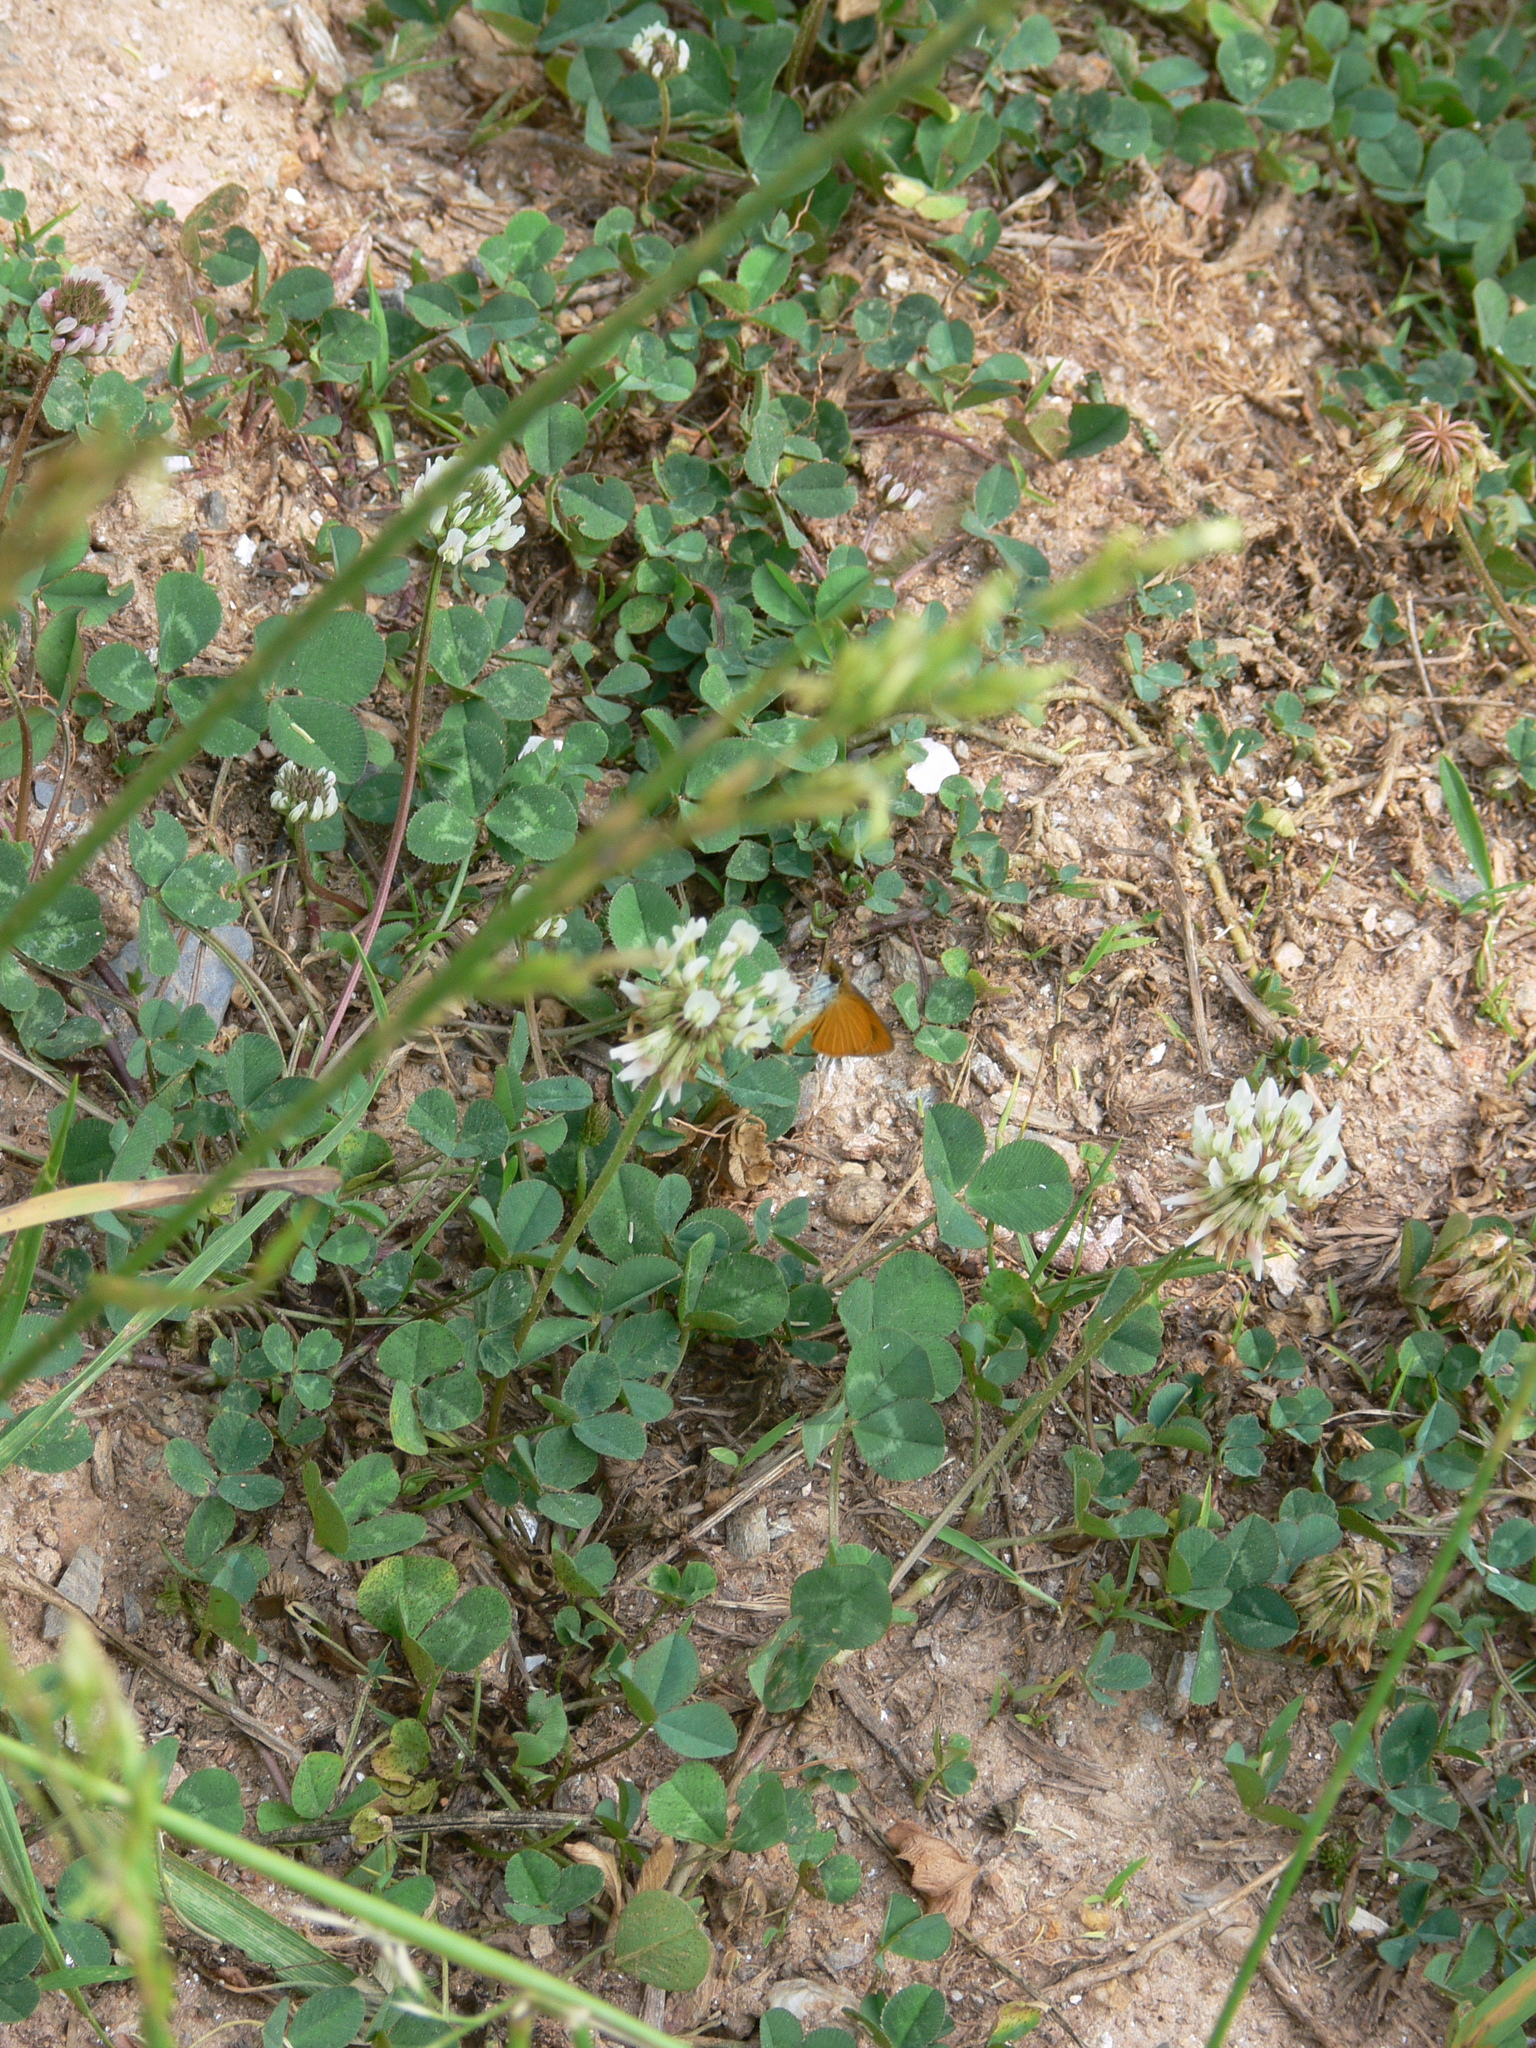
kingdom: Animalia
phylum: Arthropoda
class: Insecta
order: Lepidoptera
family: Hesperiidae
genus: Ancyloxypha
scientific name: Ancyloxypha numitor
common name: Least skipper
